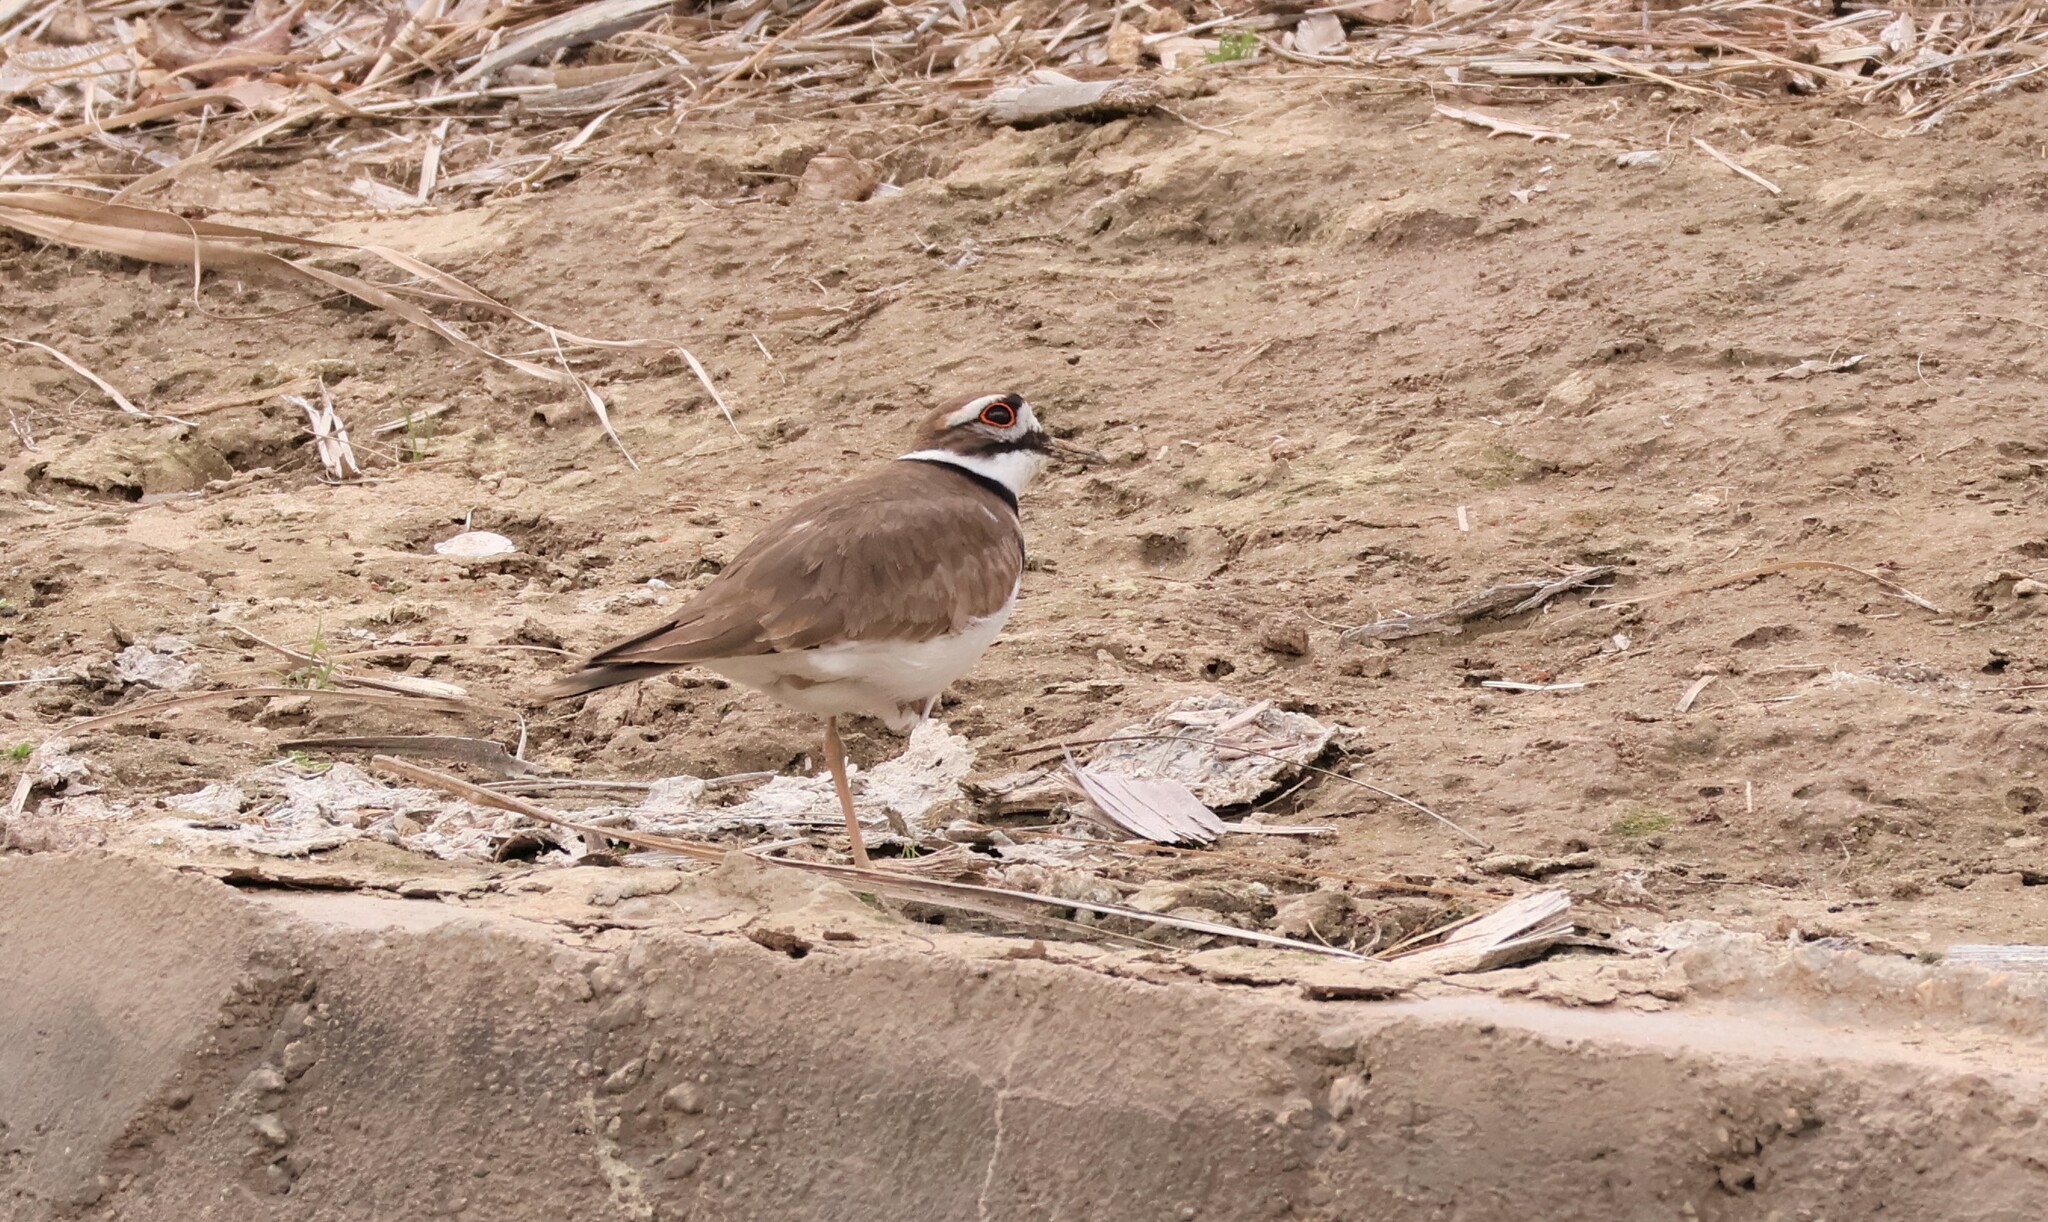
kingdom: Animalia
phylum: Chordata
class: Aves
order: Charadriiformes
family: Charadriidae
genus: Charadrius
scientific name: Charadrius vociferus
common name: Killdeer
